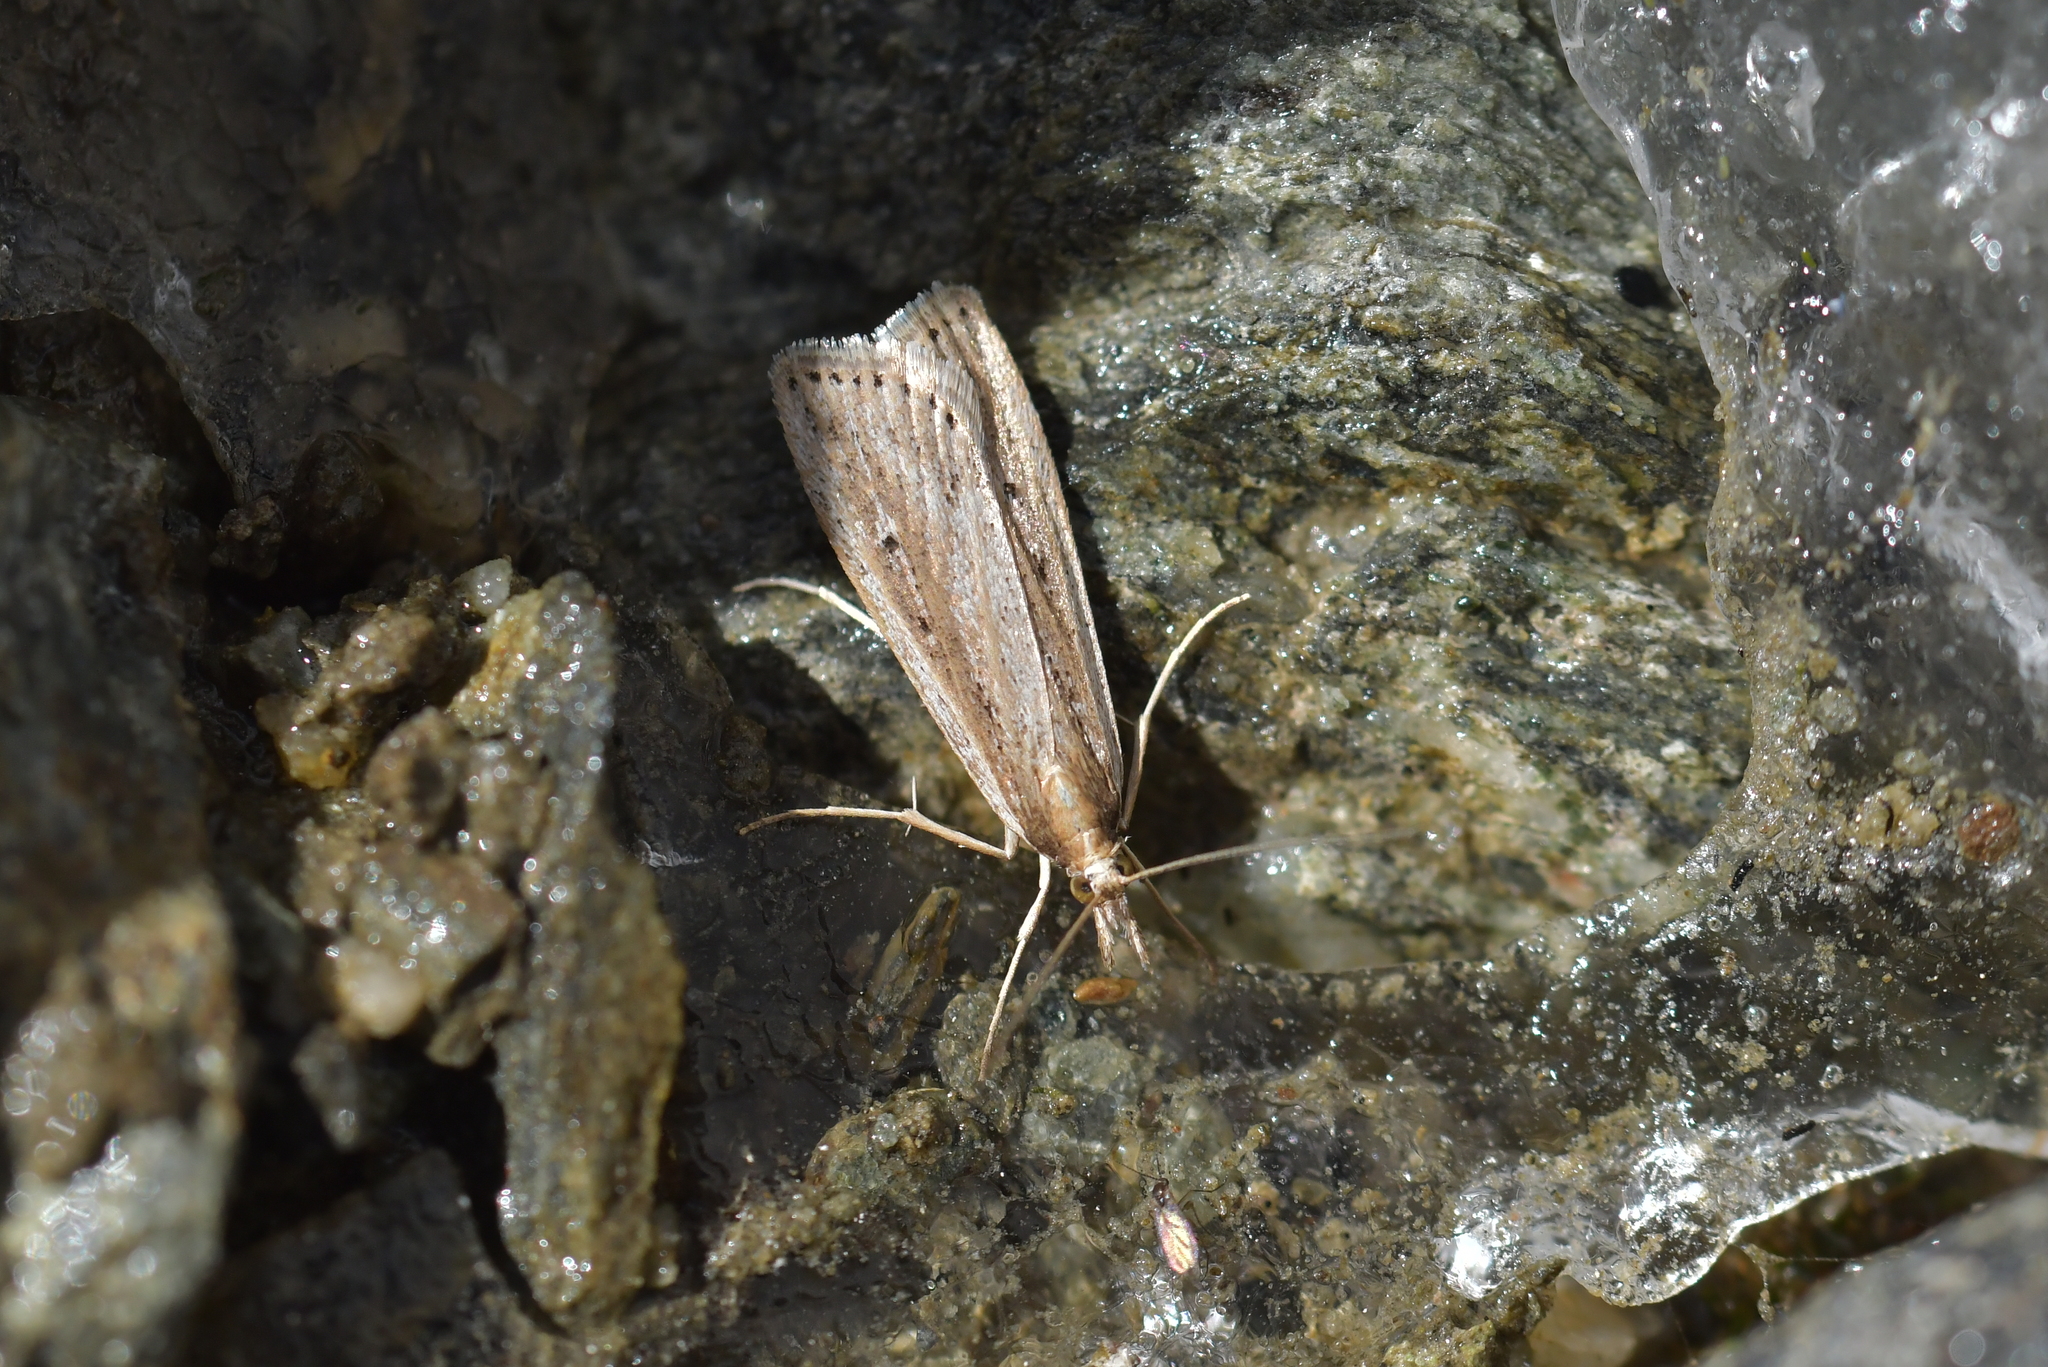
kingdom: Animalia
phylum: Arthropoda
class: Insecta
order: Lepidoptera
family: Crambidae
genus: Eudonia
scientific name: Eudonia sabulosella
